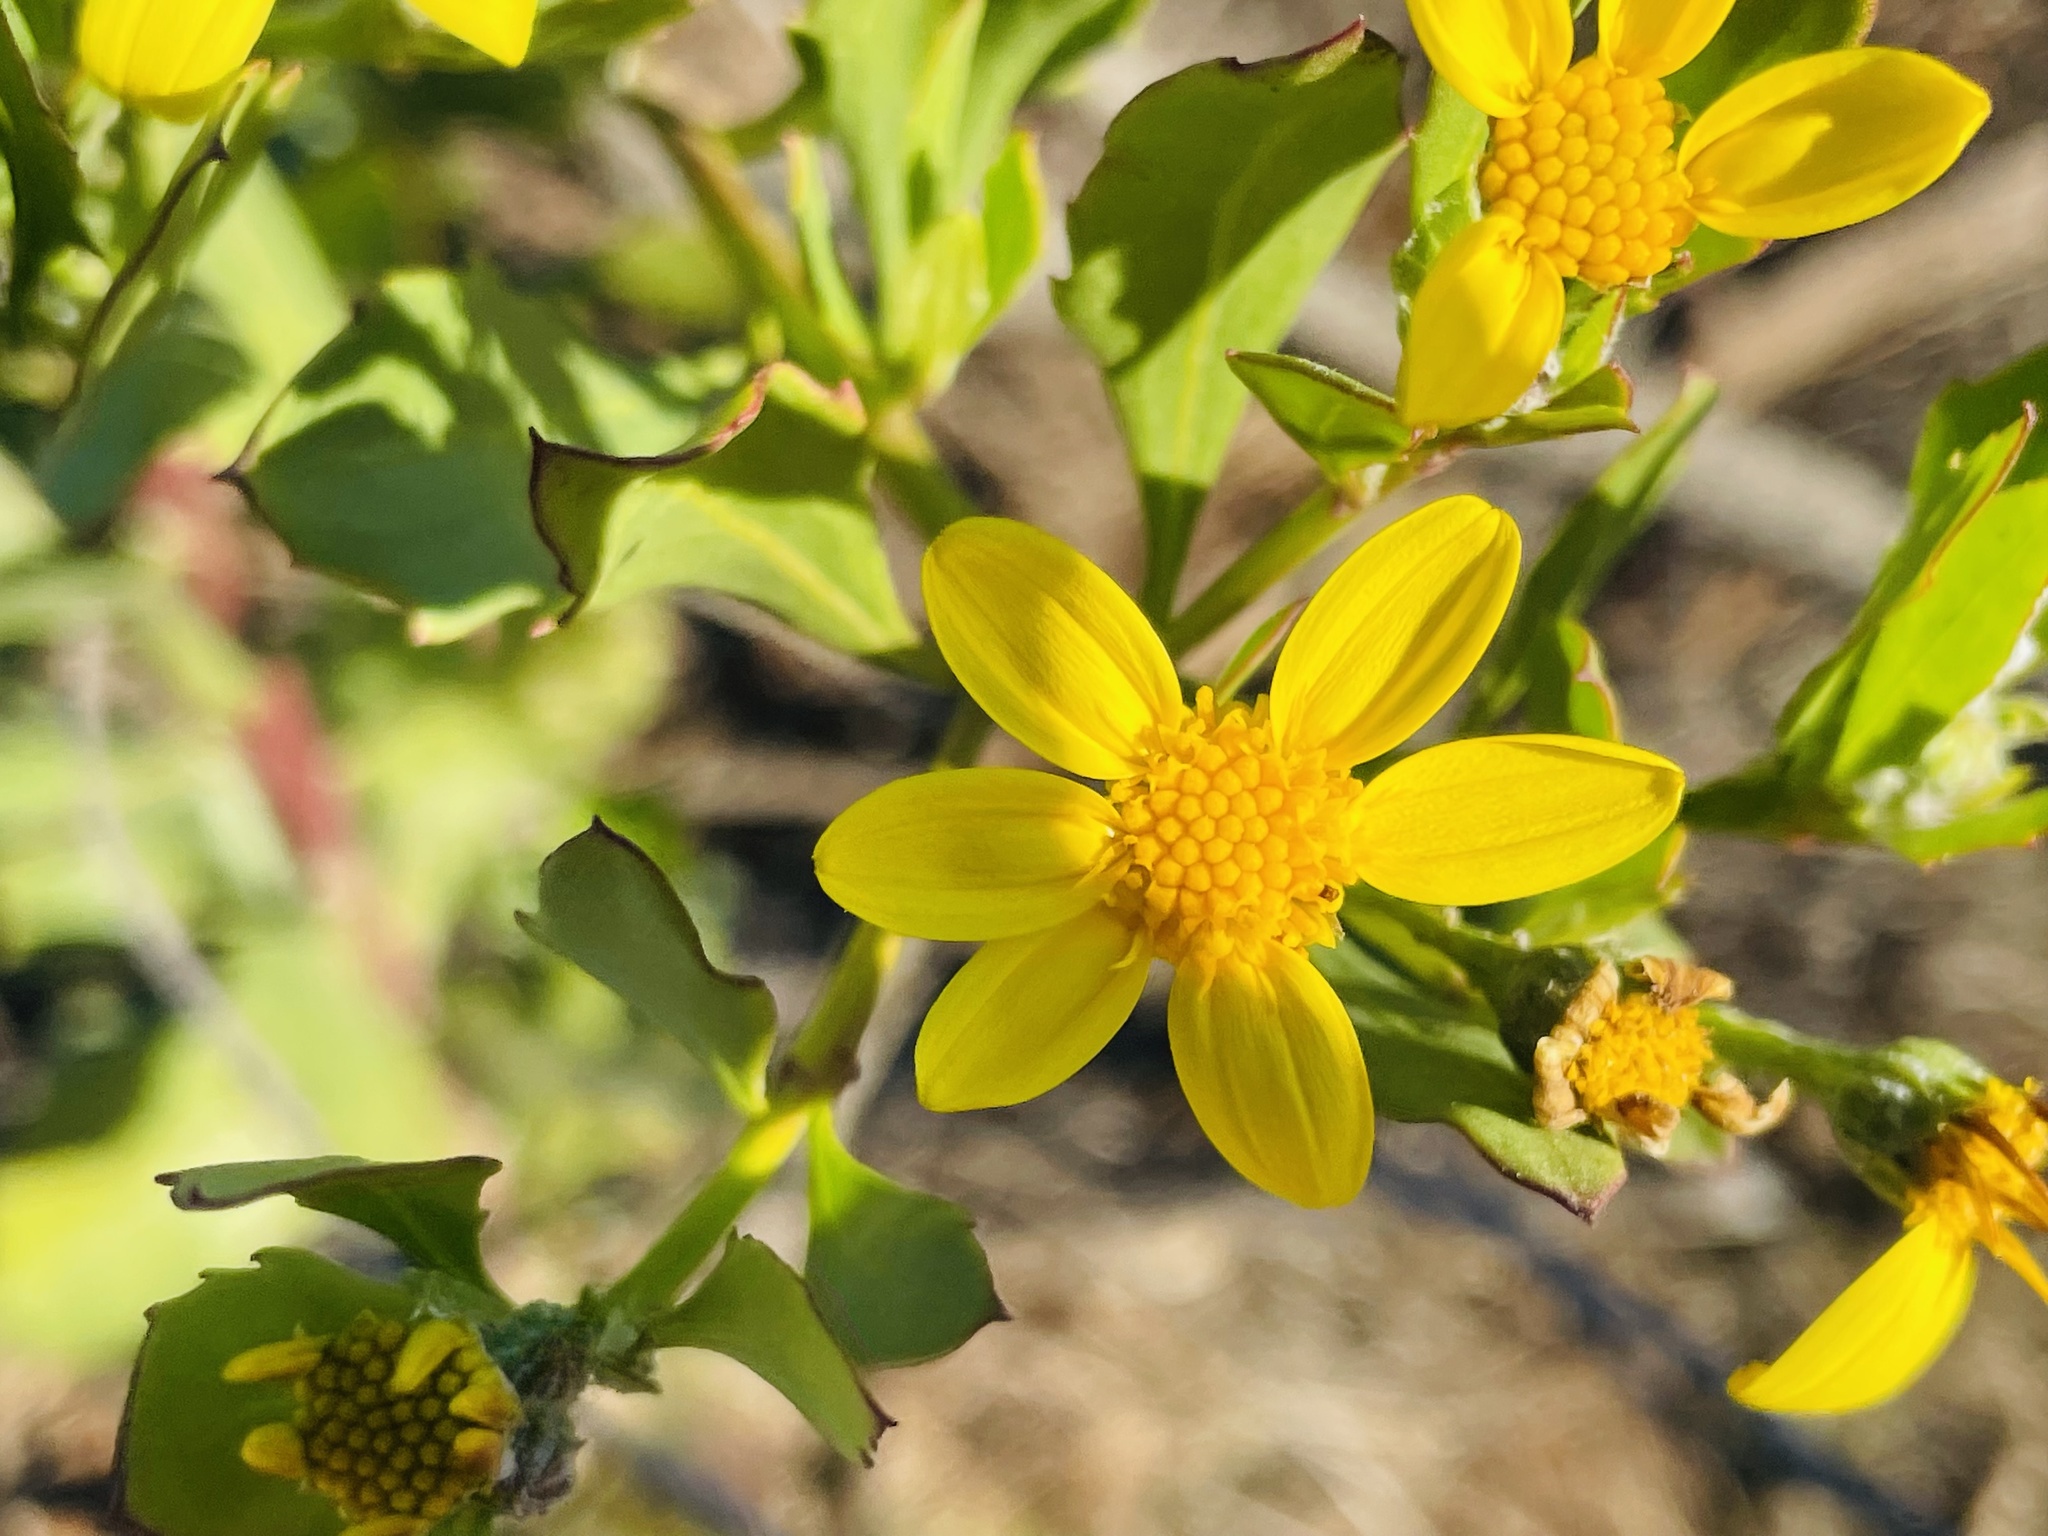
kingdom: Plantae
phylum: Tracheophyta
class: Magnoliopsida
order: Asterales
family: Asteraceae
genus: Osteospermum
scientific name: Osteospermum moniliferum
